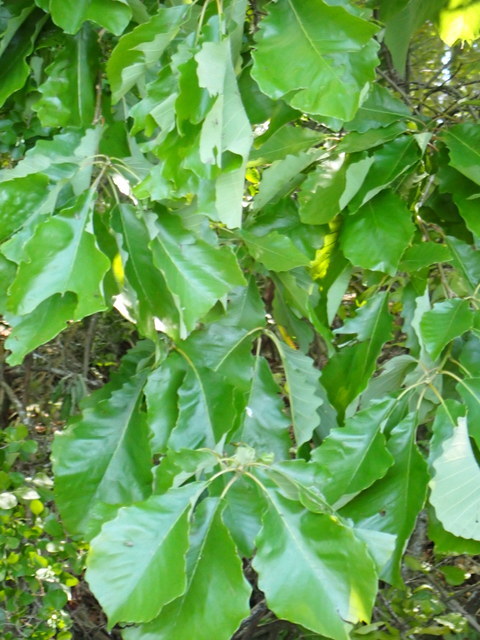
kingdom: Plantae
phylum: Tracheophyta
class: Magnoliopsida
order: Fagales
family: Fagaceae
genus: Quercus
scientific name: Quercus michauxii
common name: Swamp chestnut oak
